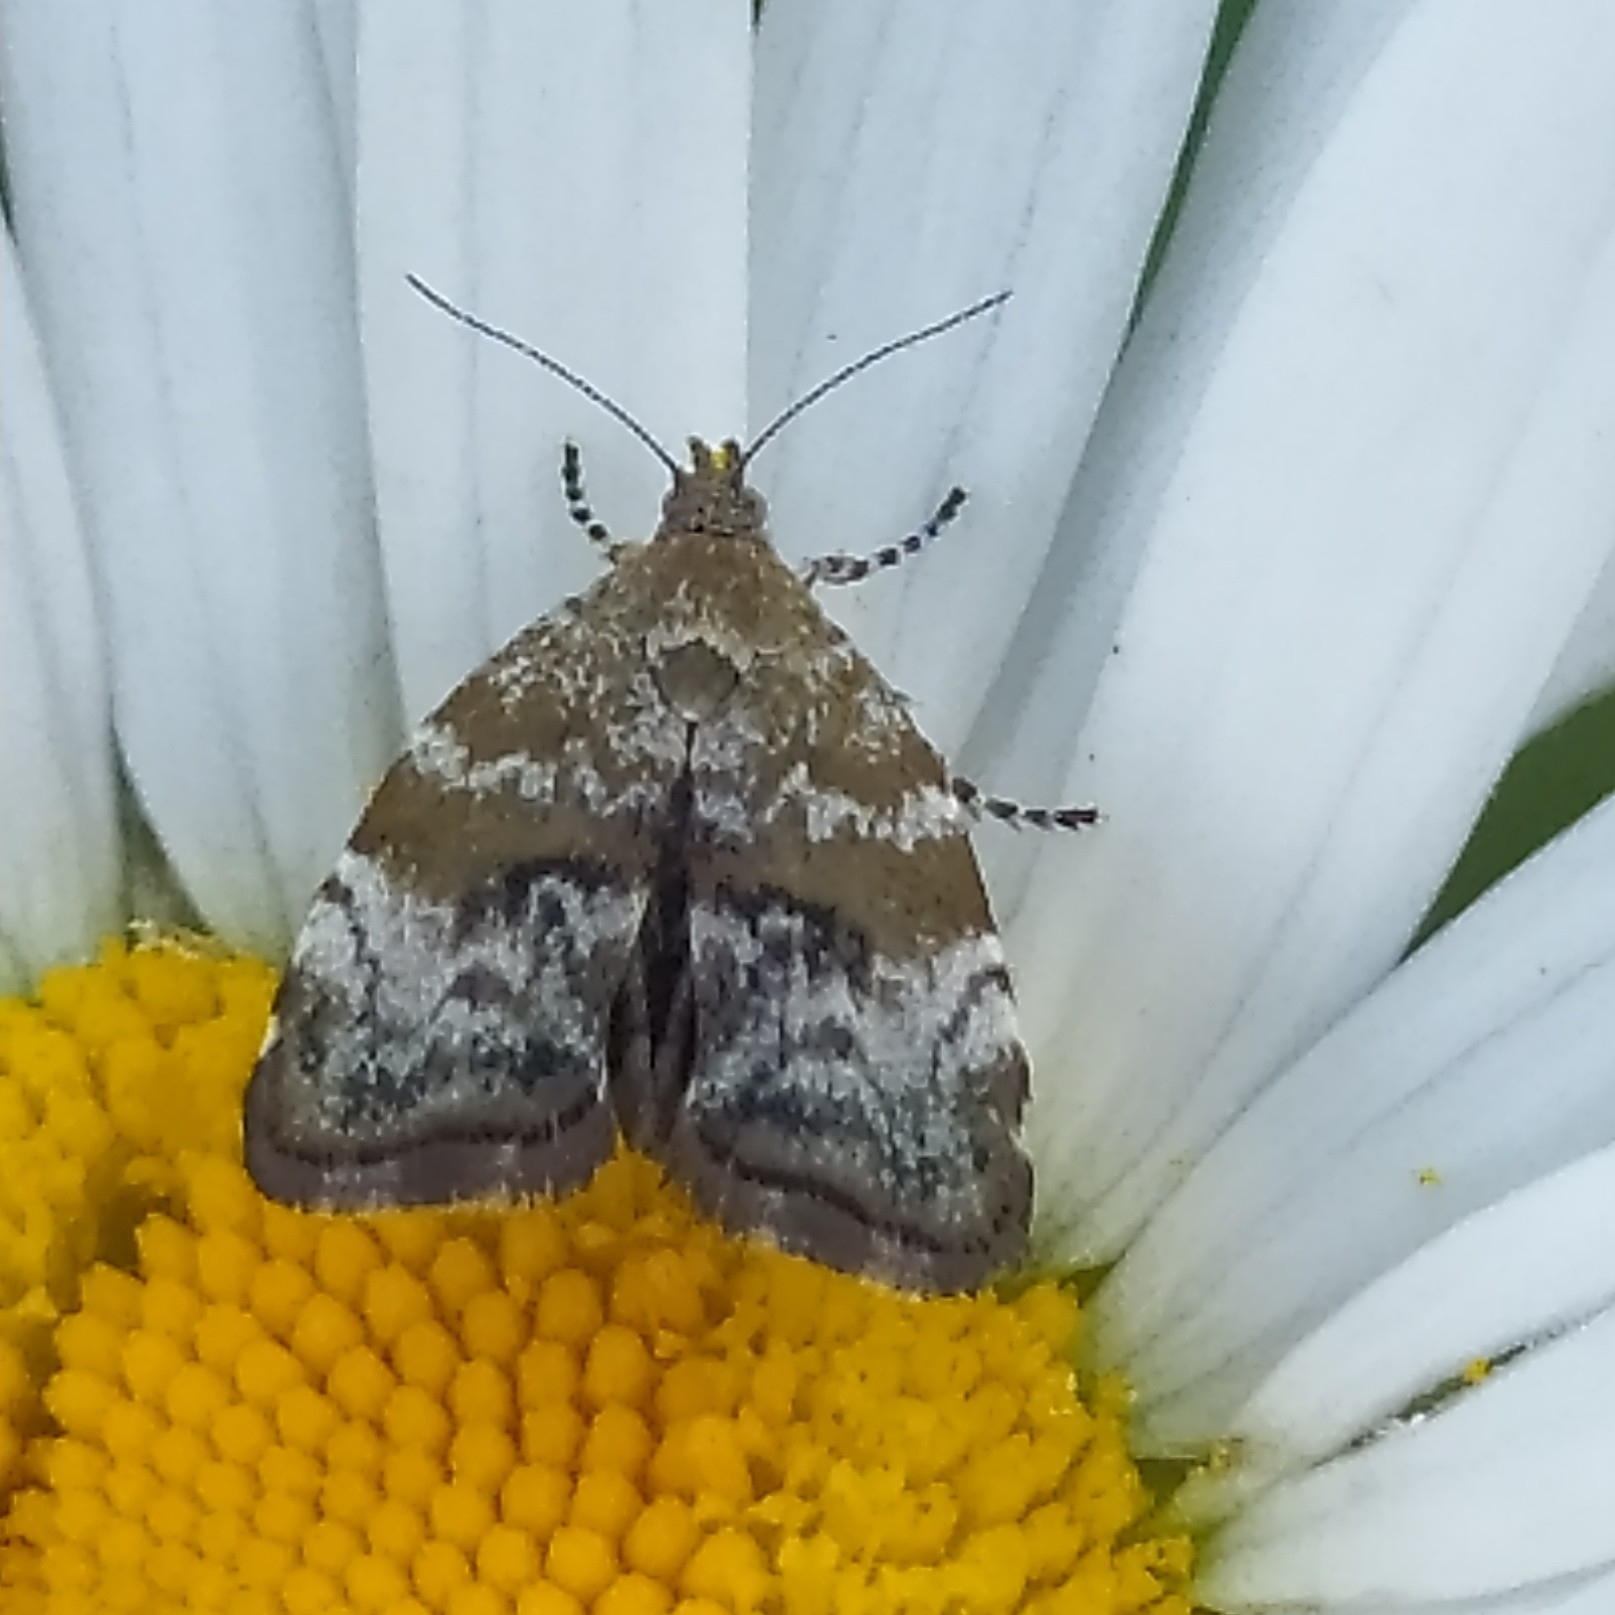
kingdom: Animalia
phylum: Arthropoda
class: Insecta
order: Lepidoptera
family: Choreutidae
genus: Choreutis
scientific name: Choreutis diana
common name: Inverness twitcher
